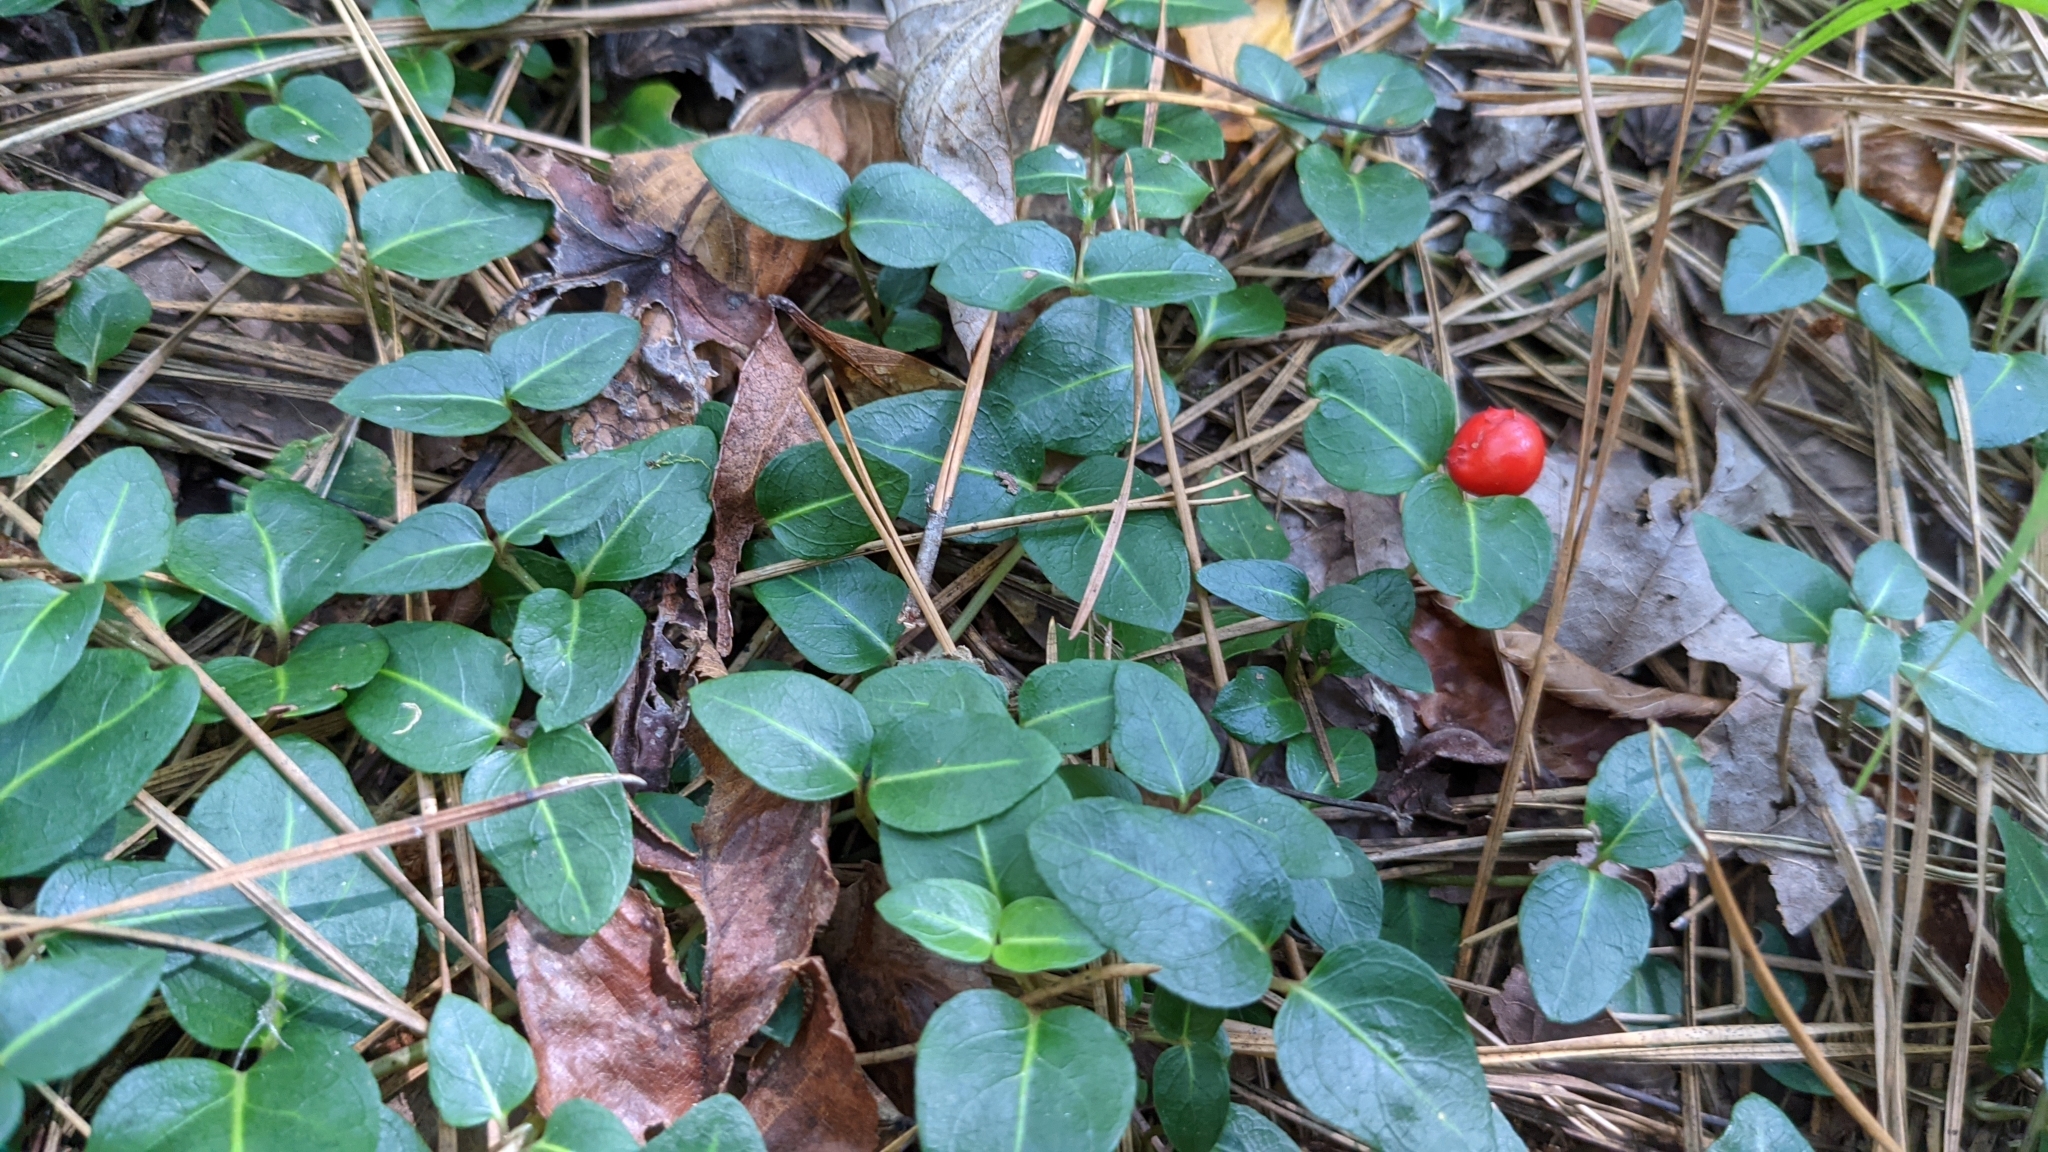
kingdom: Plantae
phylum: Tracheophyta
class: Magnoliopsida
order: Gentianales
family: Rubiaceae
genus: Mitchella
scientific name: Mitchella repens
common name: Partridge-berry
